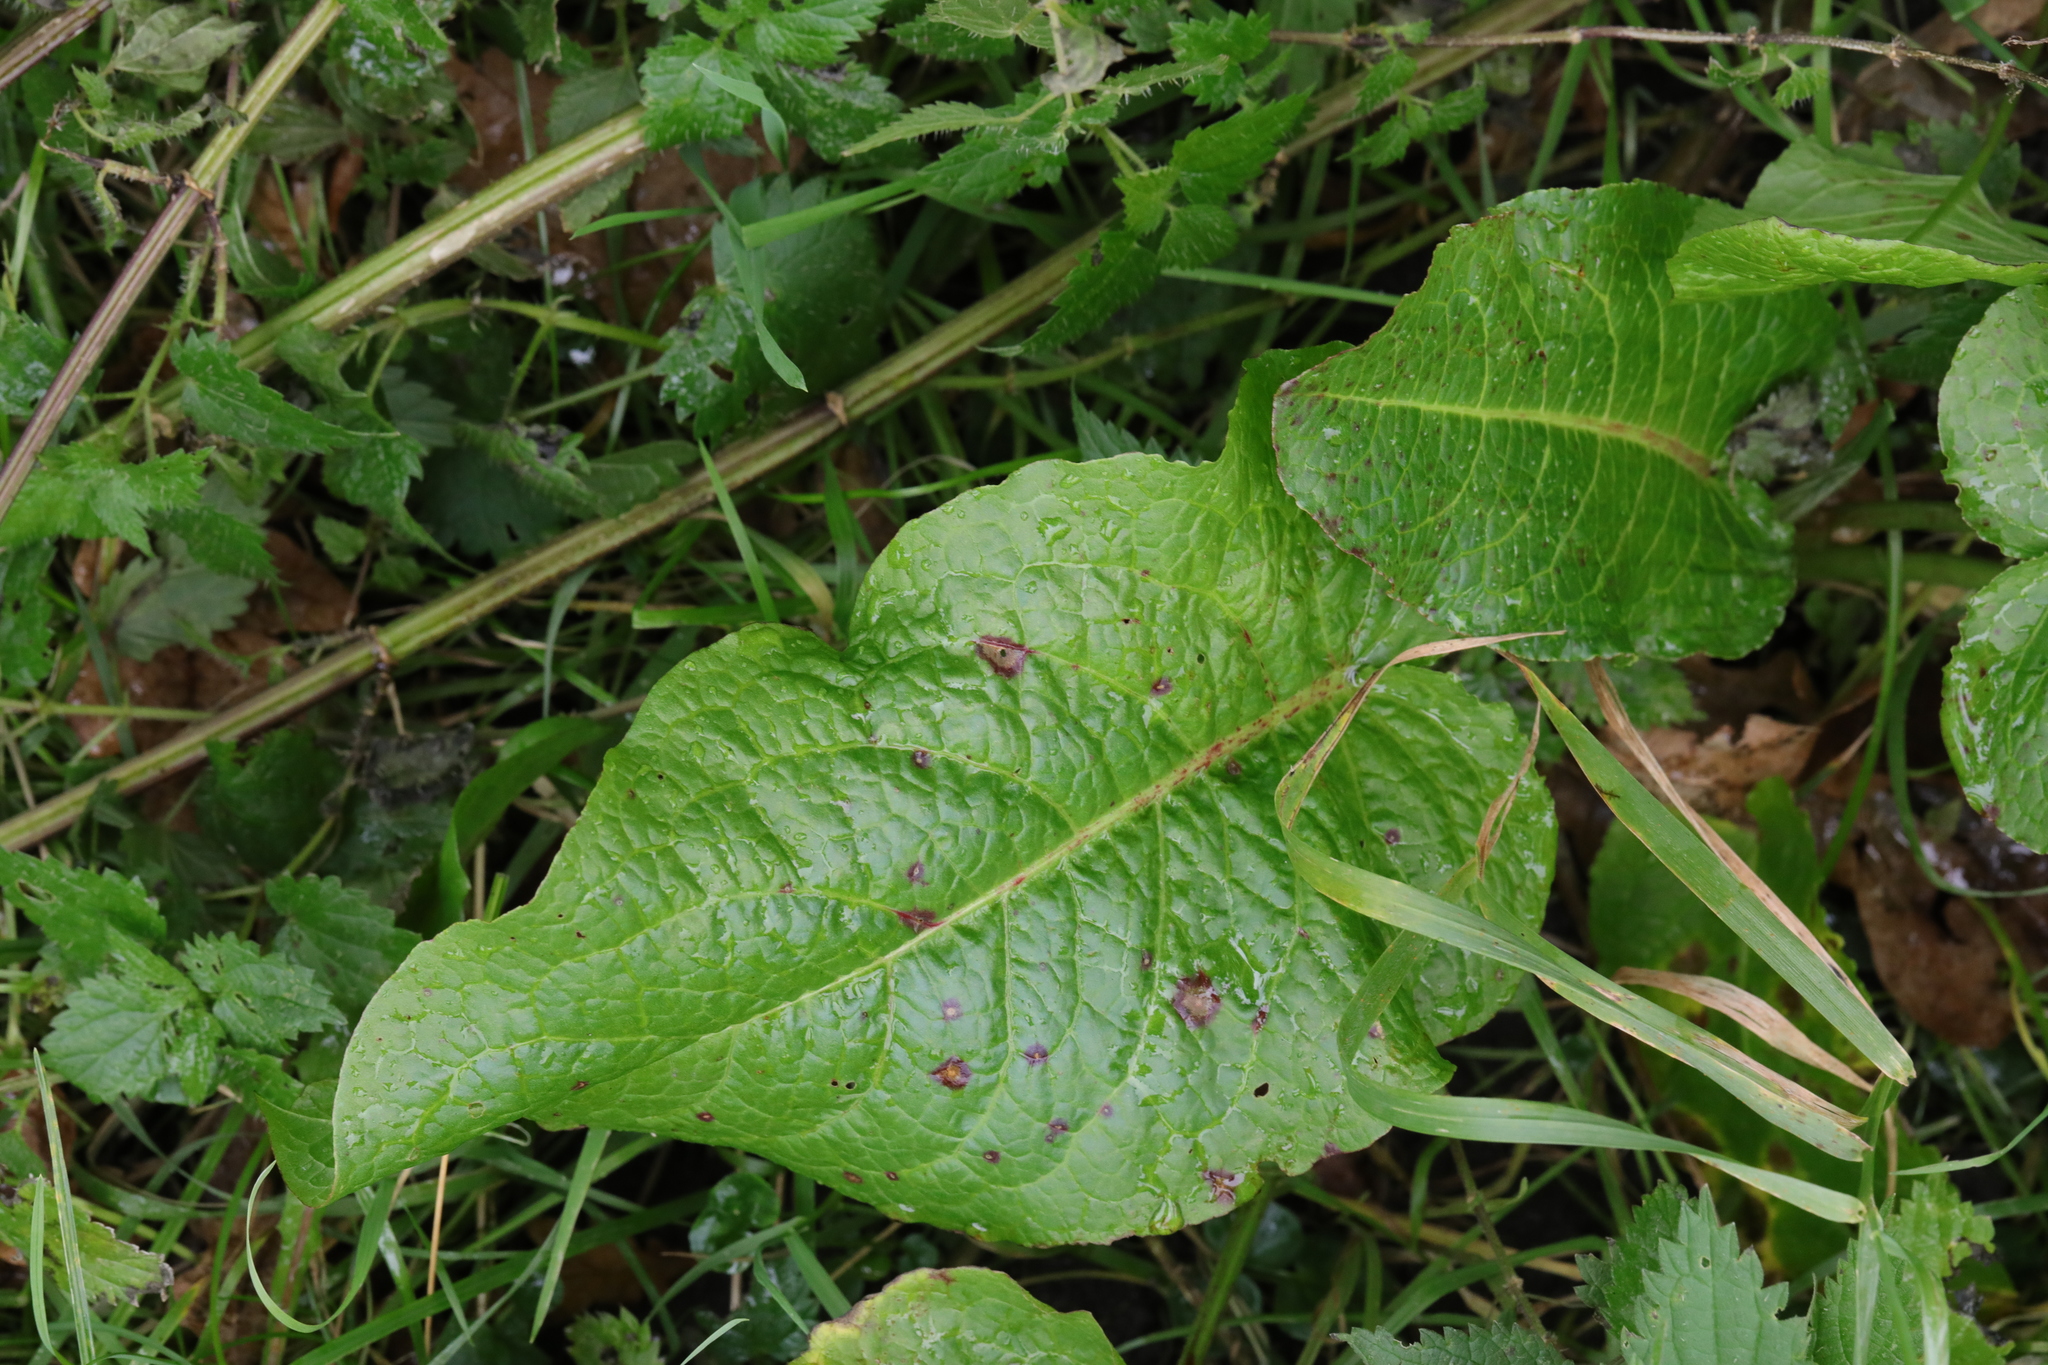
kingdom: Plantae
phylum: Tracheophyta
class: Magnoliopsida
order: Caryophyllales
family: Polygonaceae
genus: Rumex
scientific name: Rumex obtusifolius
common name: Bitter dock
